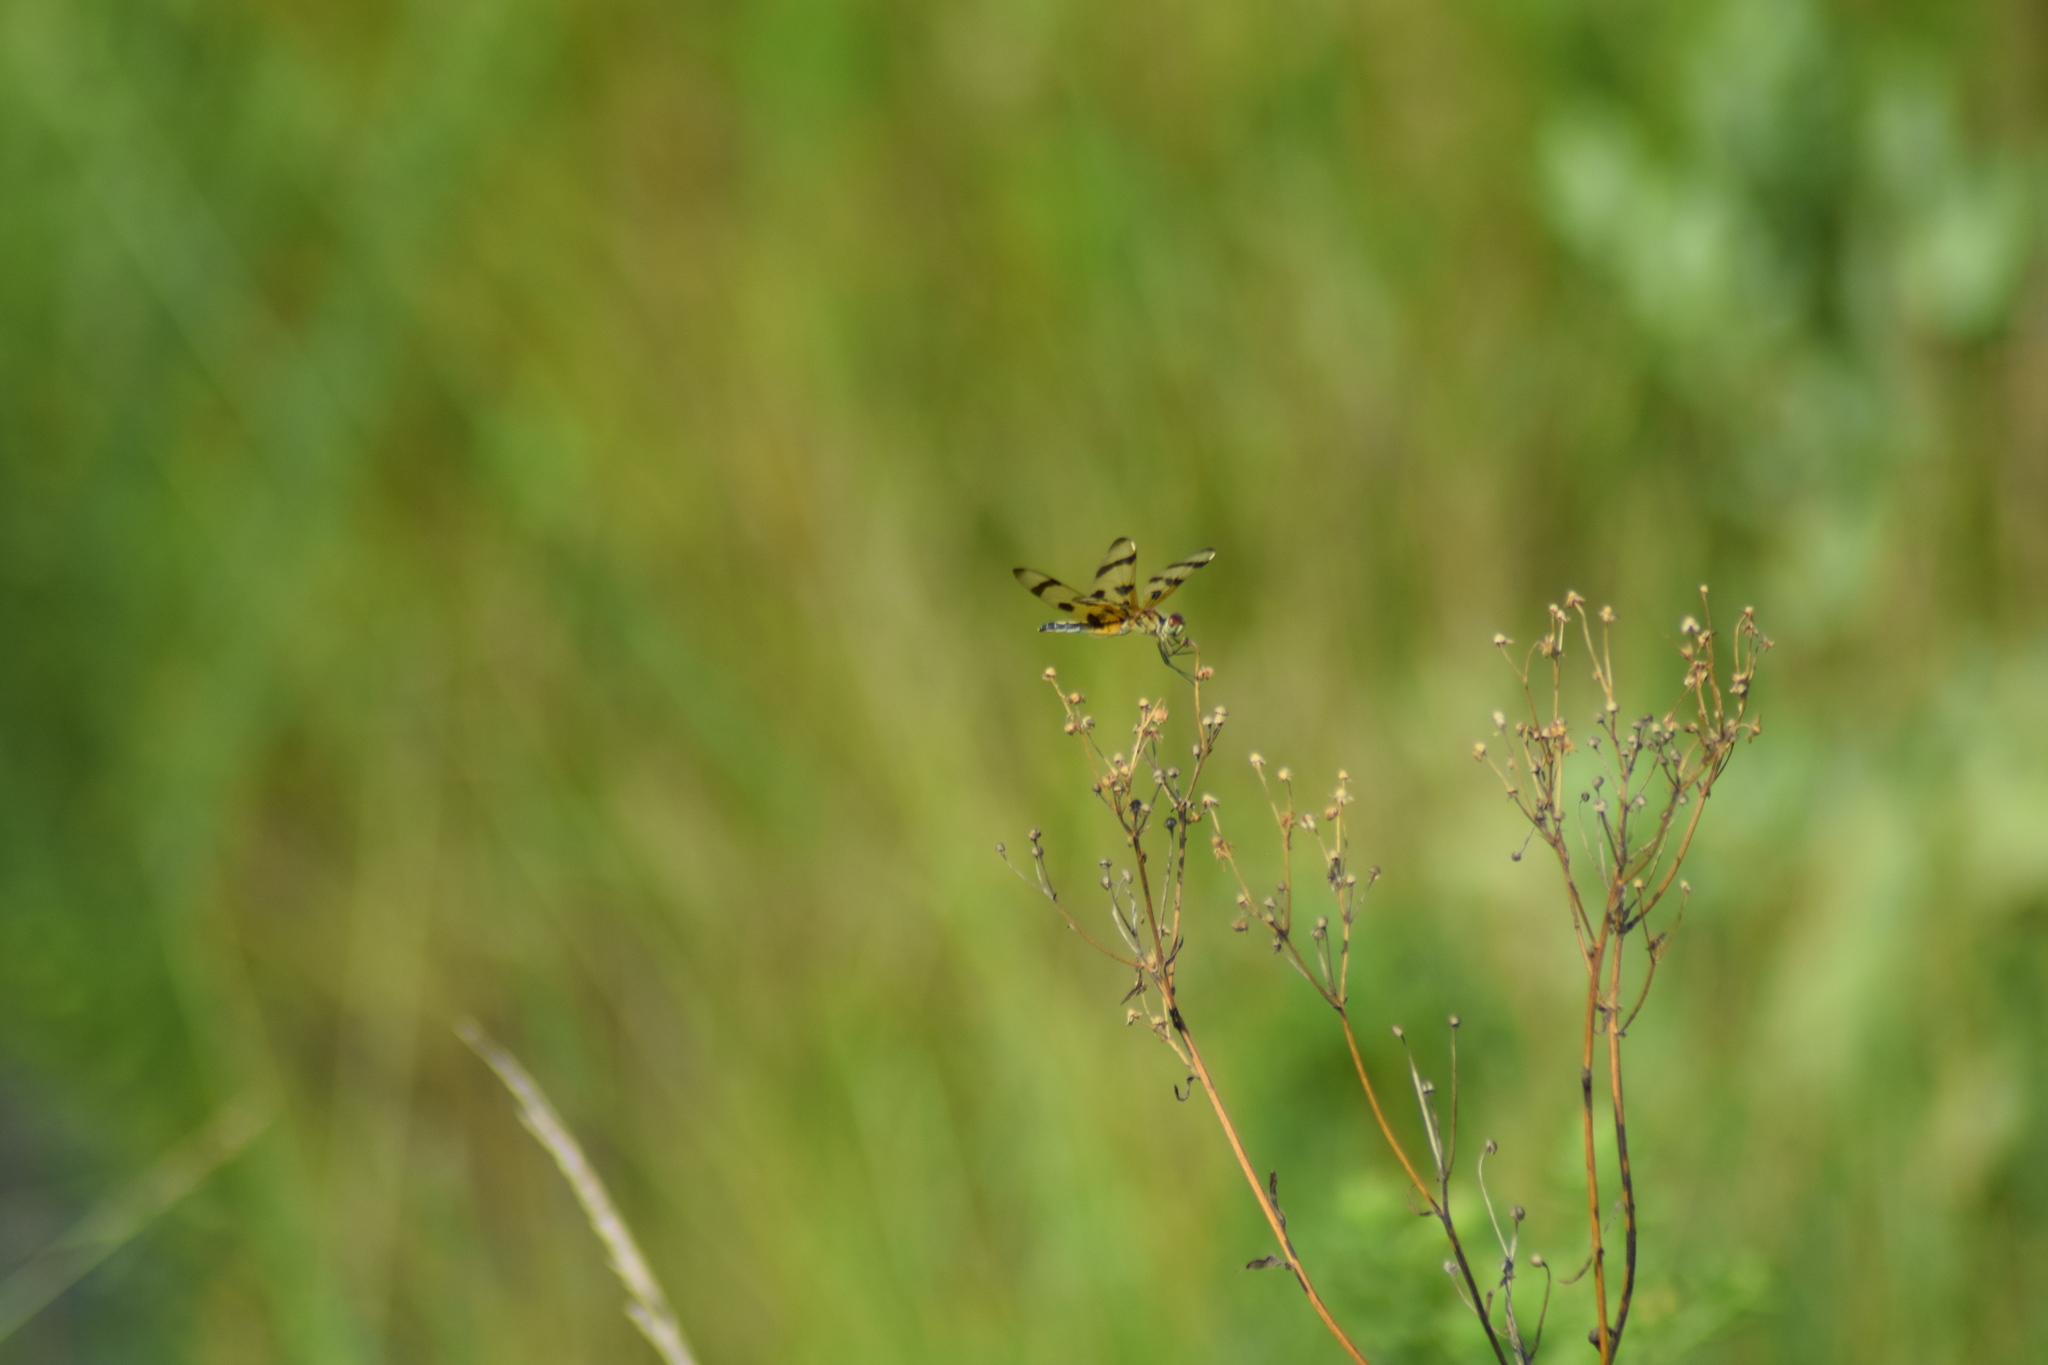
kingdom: Animalia
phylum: Arthropoda
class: Insecta
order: Odonata
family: Libellulidae
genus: Celithemis
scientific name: Celithemis eponina
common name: Halloween pennant
